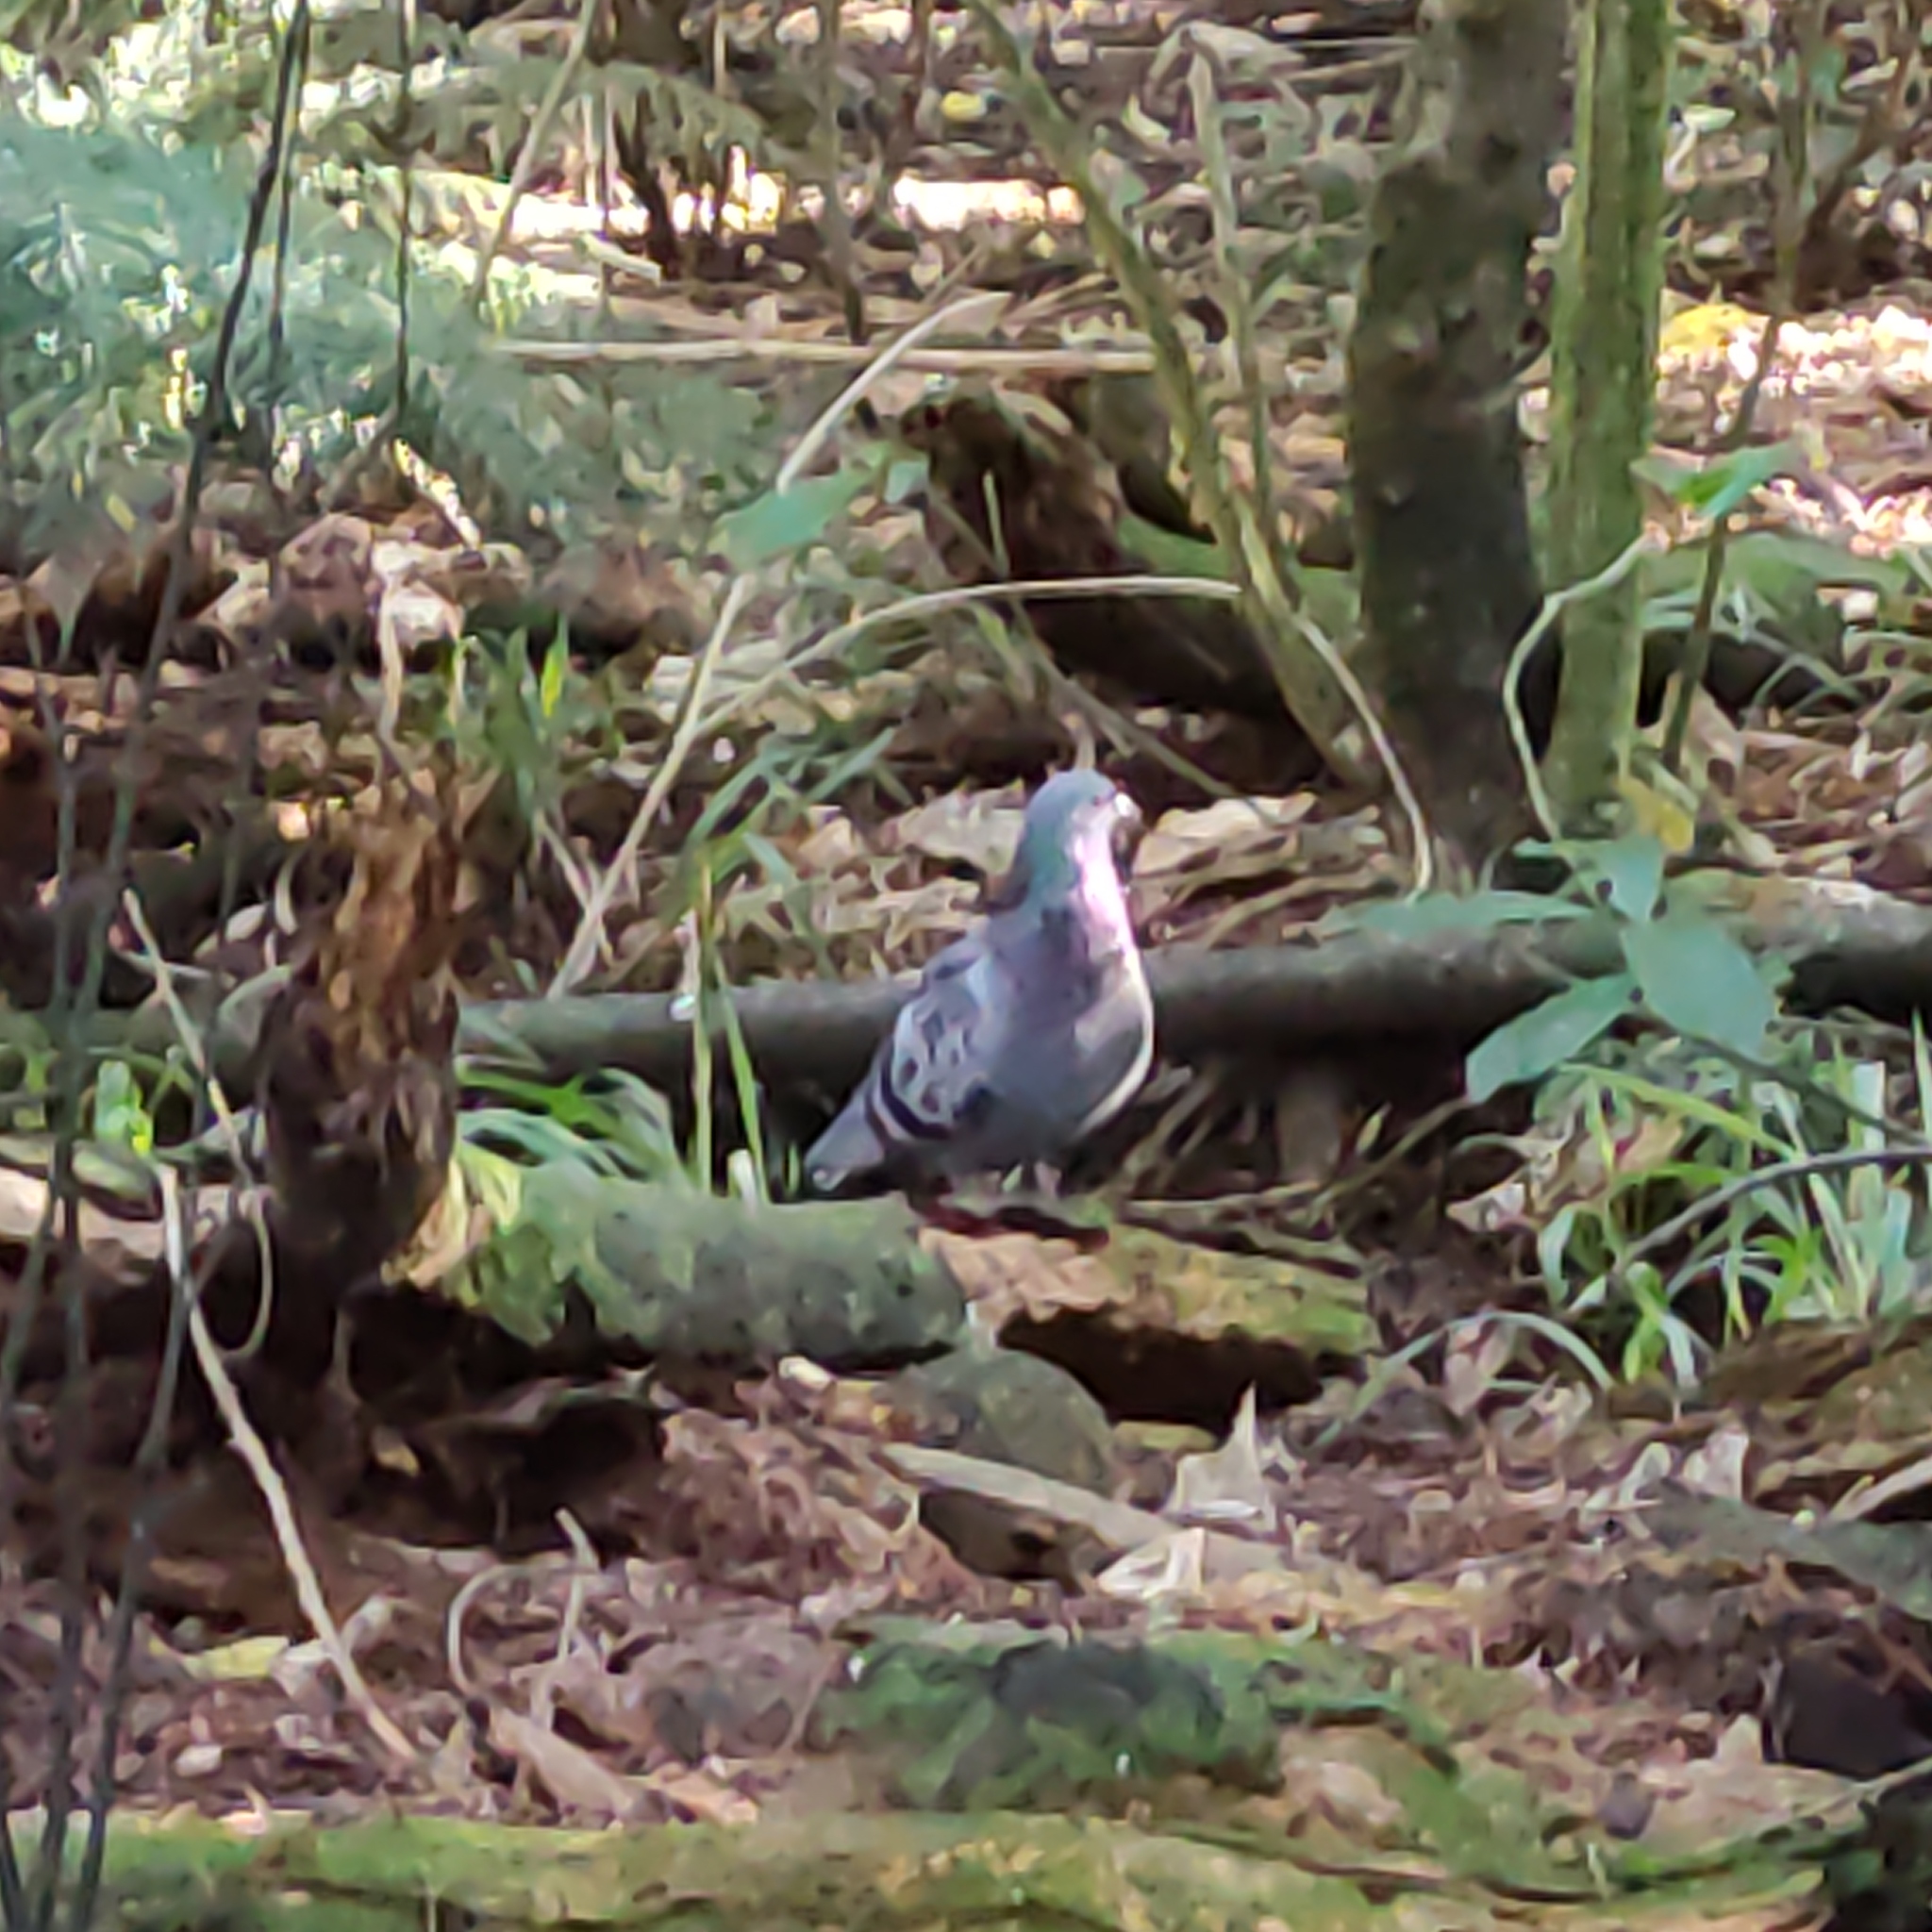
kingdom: Animalia
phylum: Chordata
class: Aves
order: Columbiformes
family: Columbidae
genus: Columba
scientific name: Columba livia
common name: Rock pigeon
